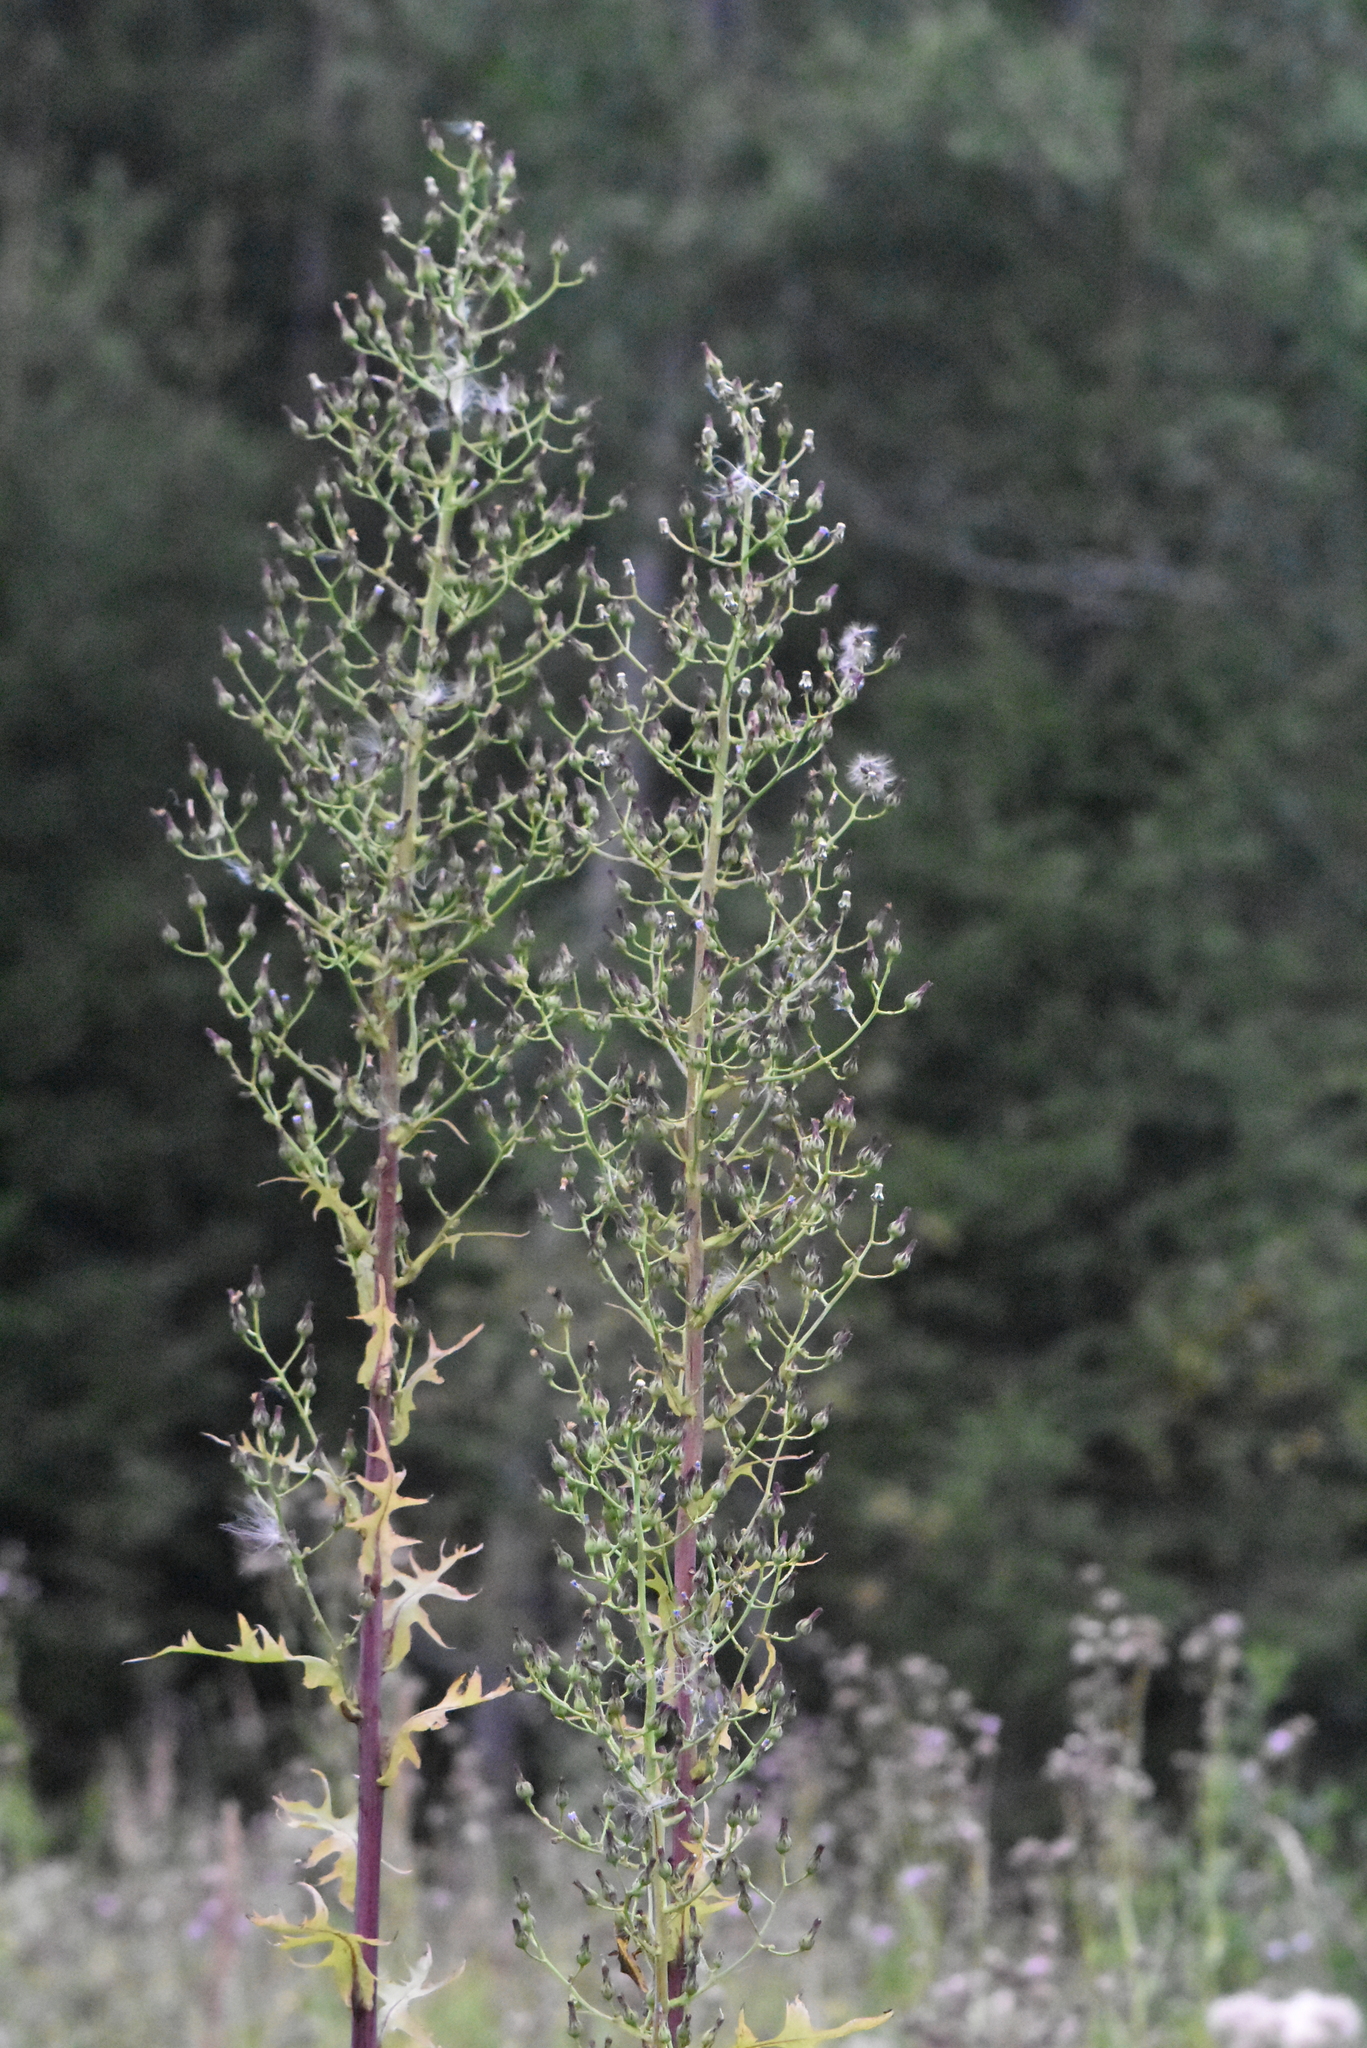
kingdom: Plantae
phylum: Tracheophyta
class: Magnoliopsida
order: Asterales
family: Asteraceae
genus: Lactuca
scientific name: Lactuca biennis
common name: Blue wood lettuce
